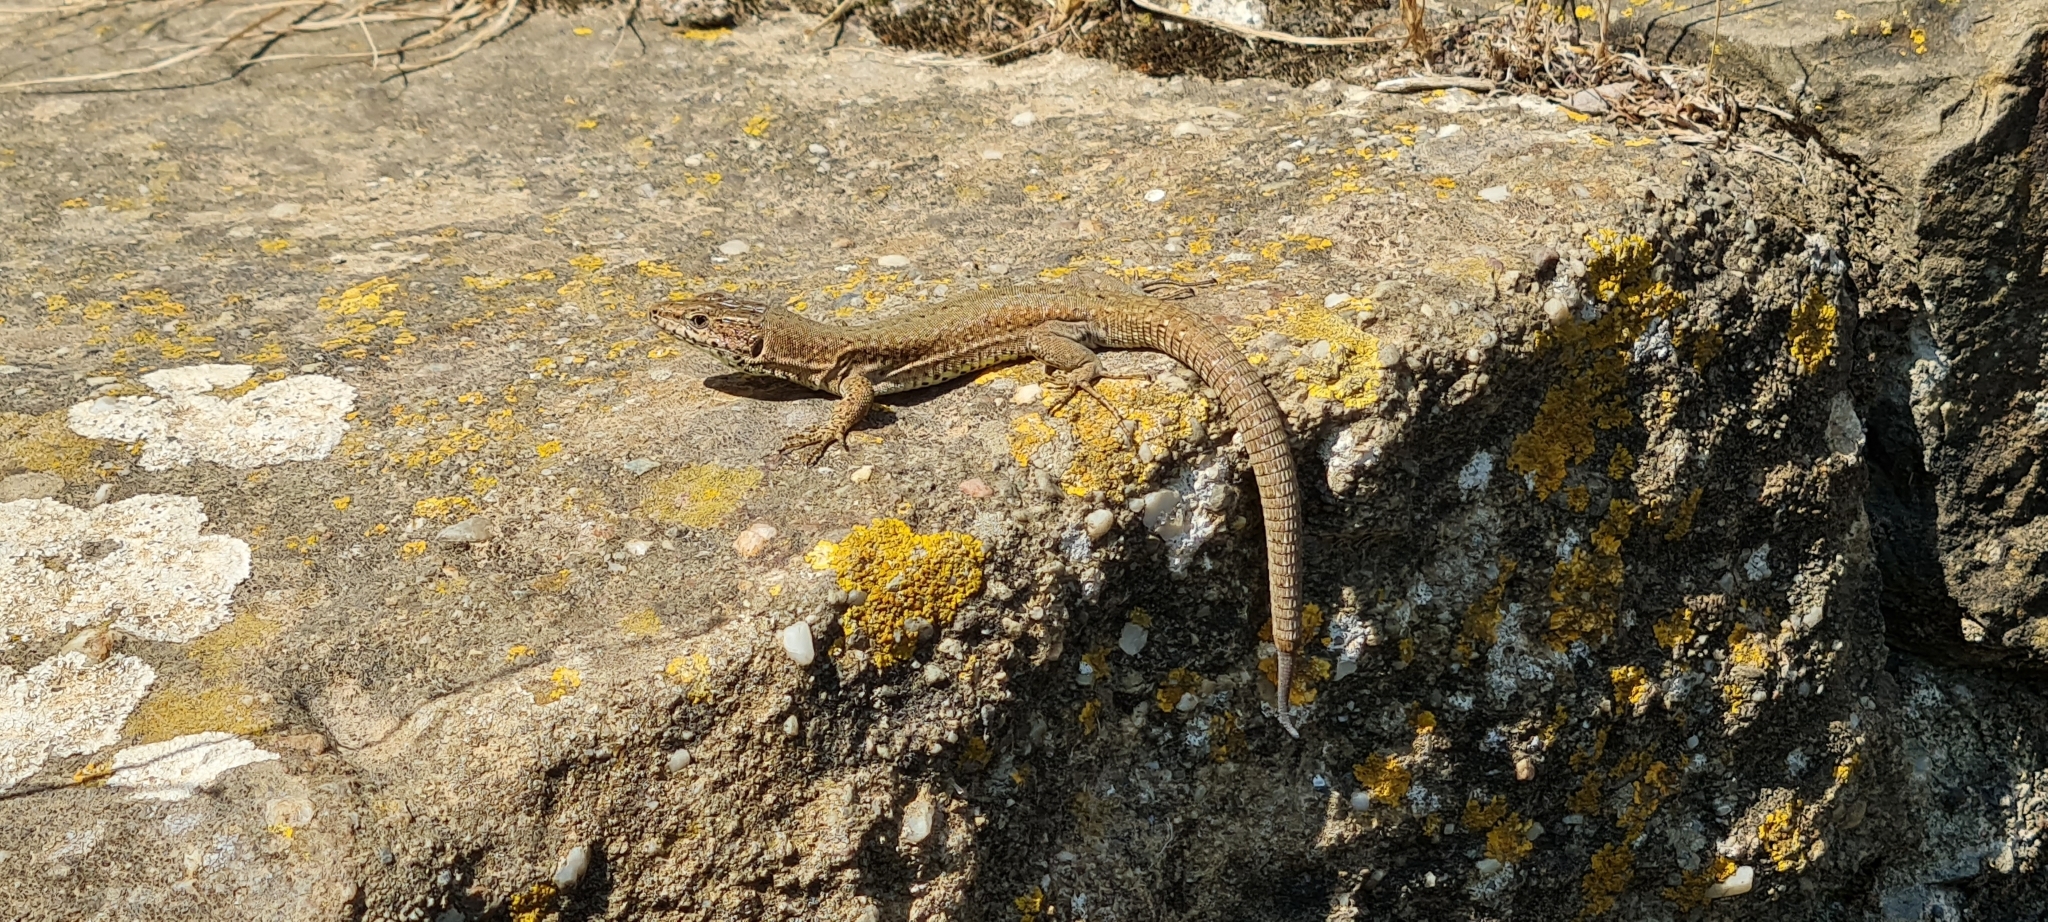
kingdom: Animalia
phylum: Chordata
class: Squamata
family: Lacertidae
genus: Podarcis
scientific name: Podarcis liolepis
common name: Catalonian wall lizard
